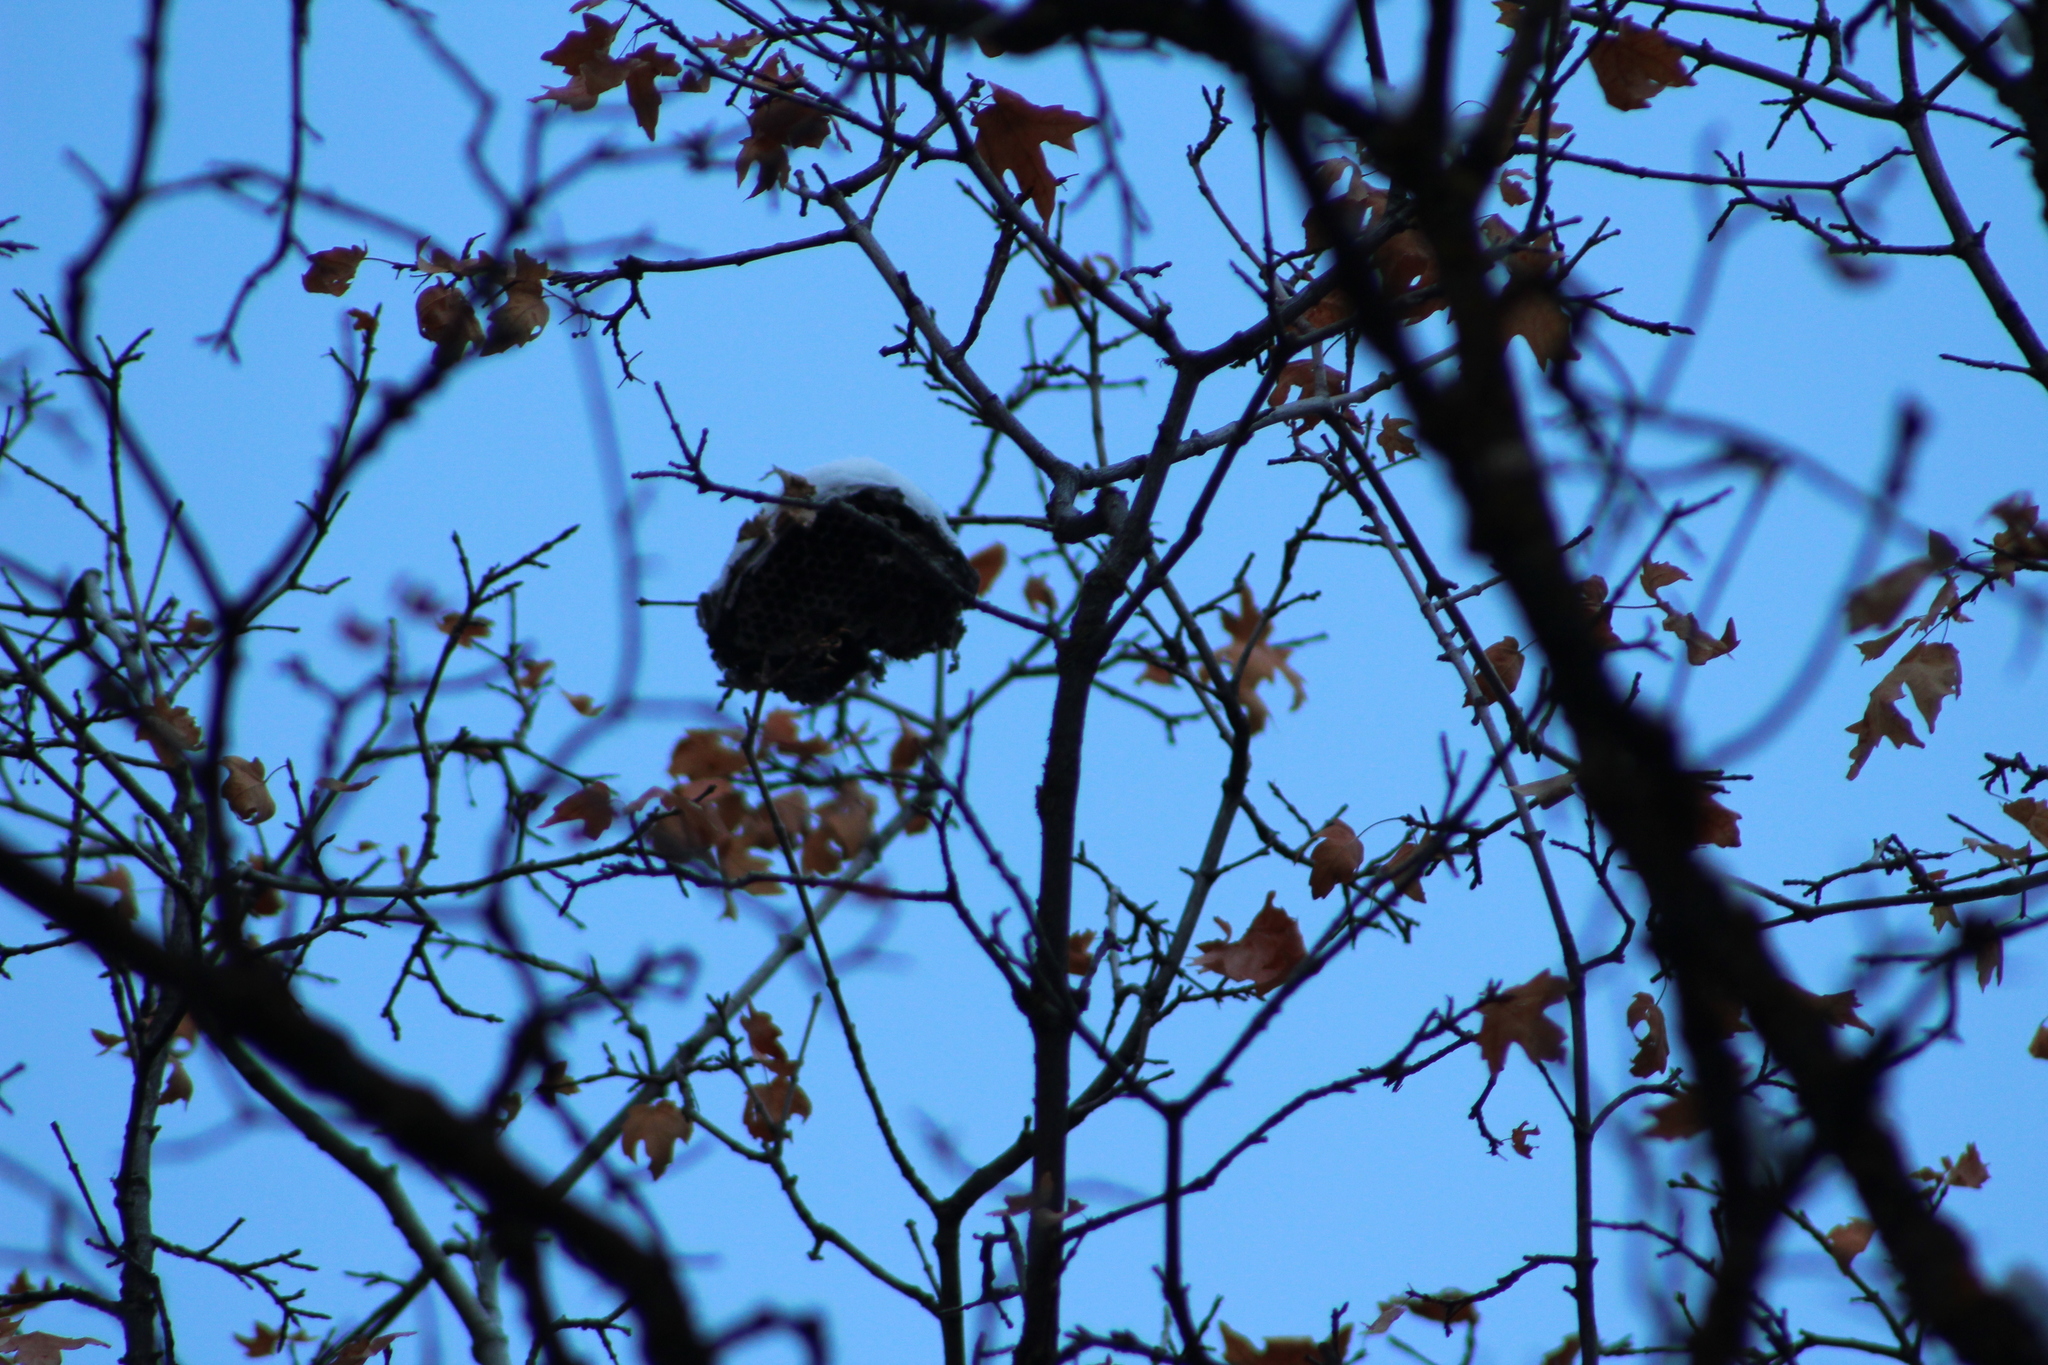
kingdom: Animalia
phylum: Arthropoda
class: Insecta
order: Hymenoptera
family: Vespidae
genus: Dolichovespula
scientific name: Dolichovespula
